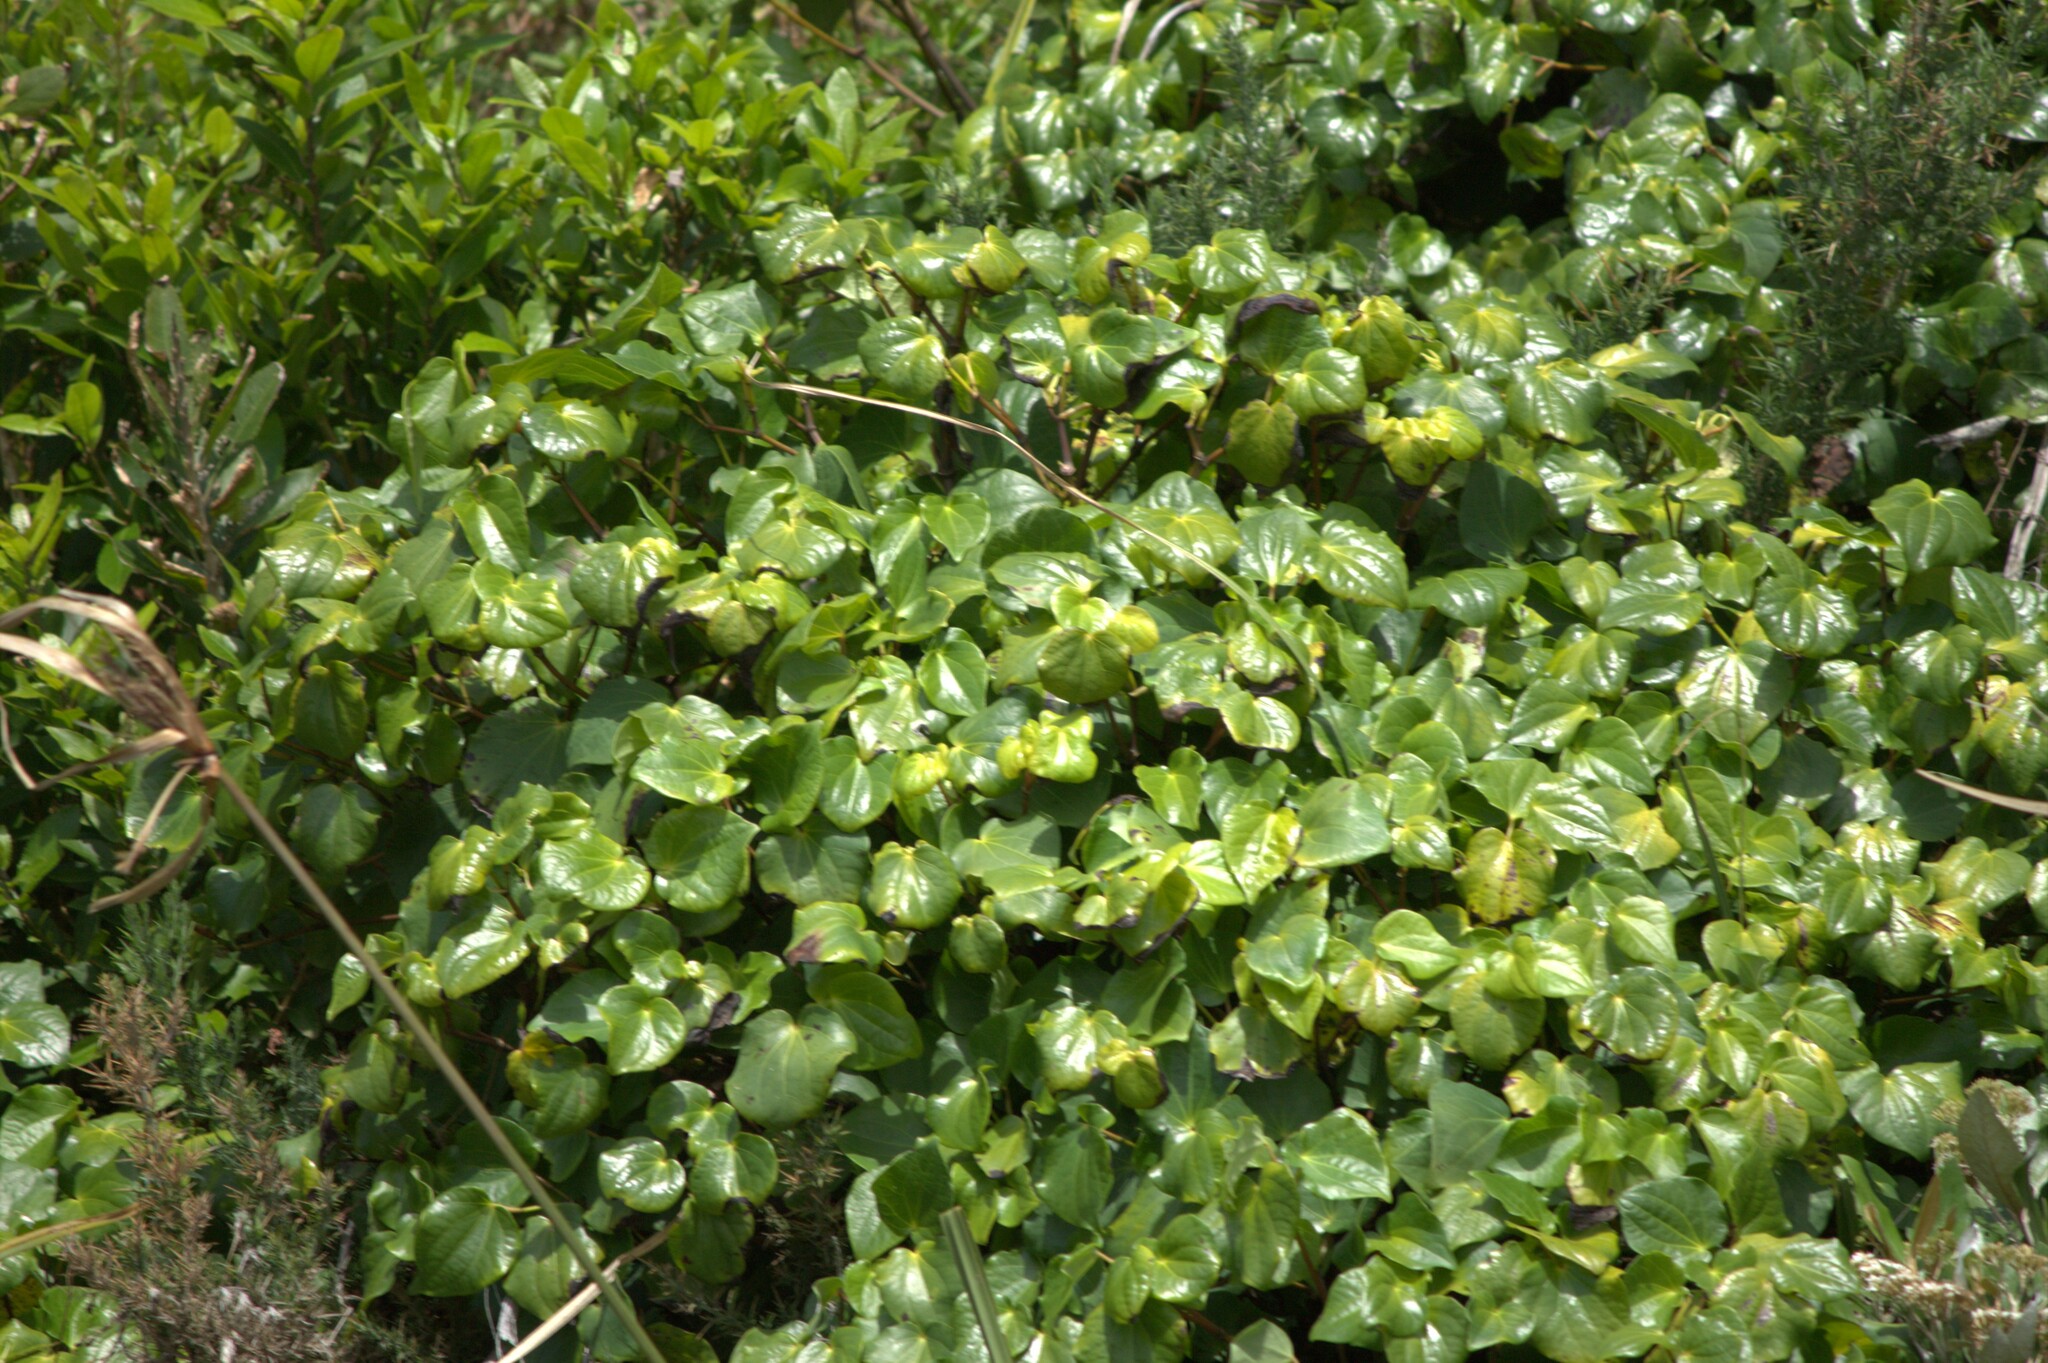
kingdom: Plantae
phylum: Tracheophyta
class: Magnoliopsida
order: Piperales
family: Piperaceae
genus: Macropiper
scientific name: Macropiper excelsum
